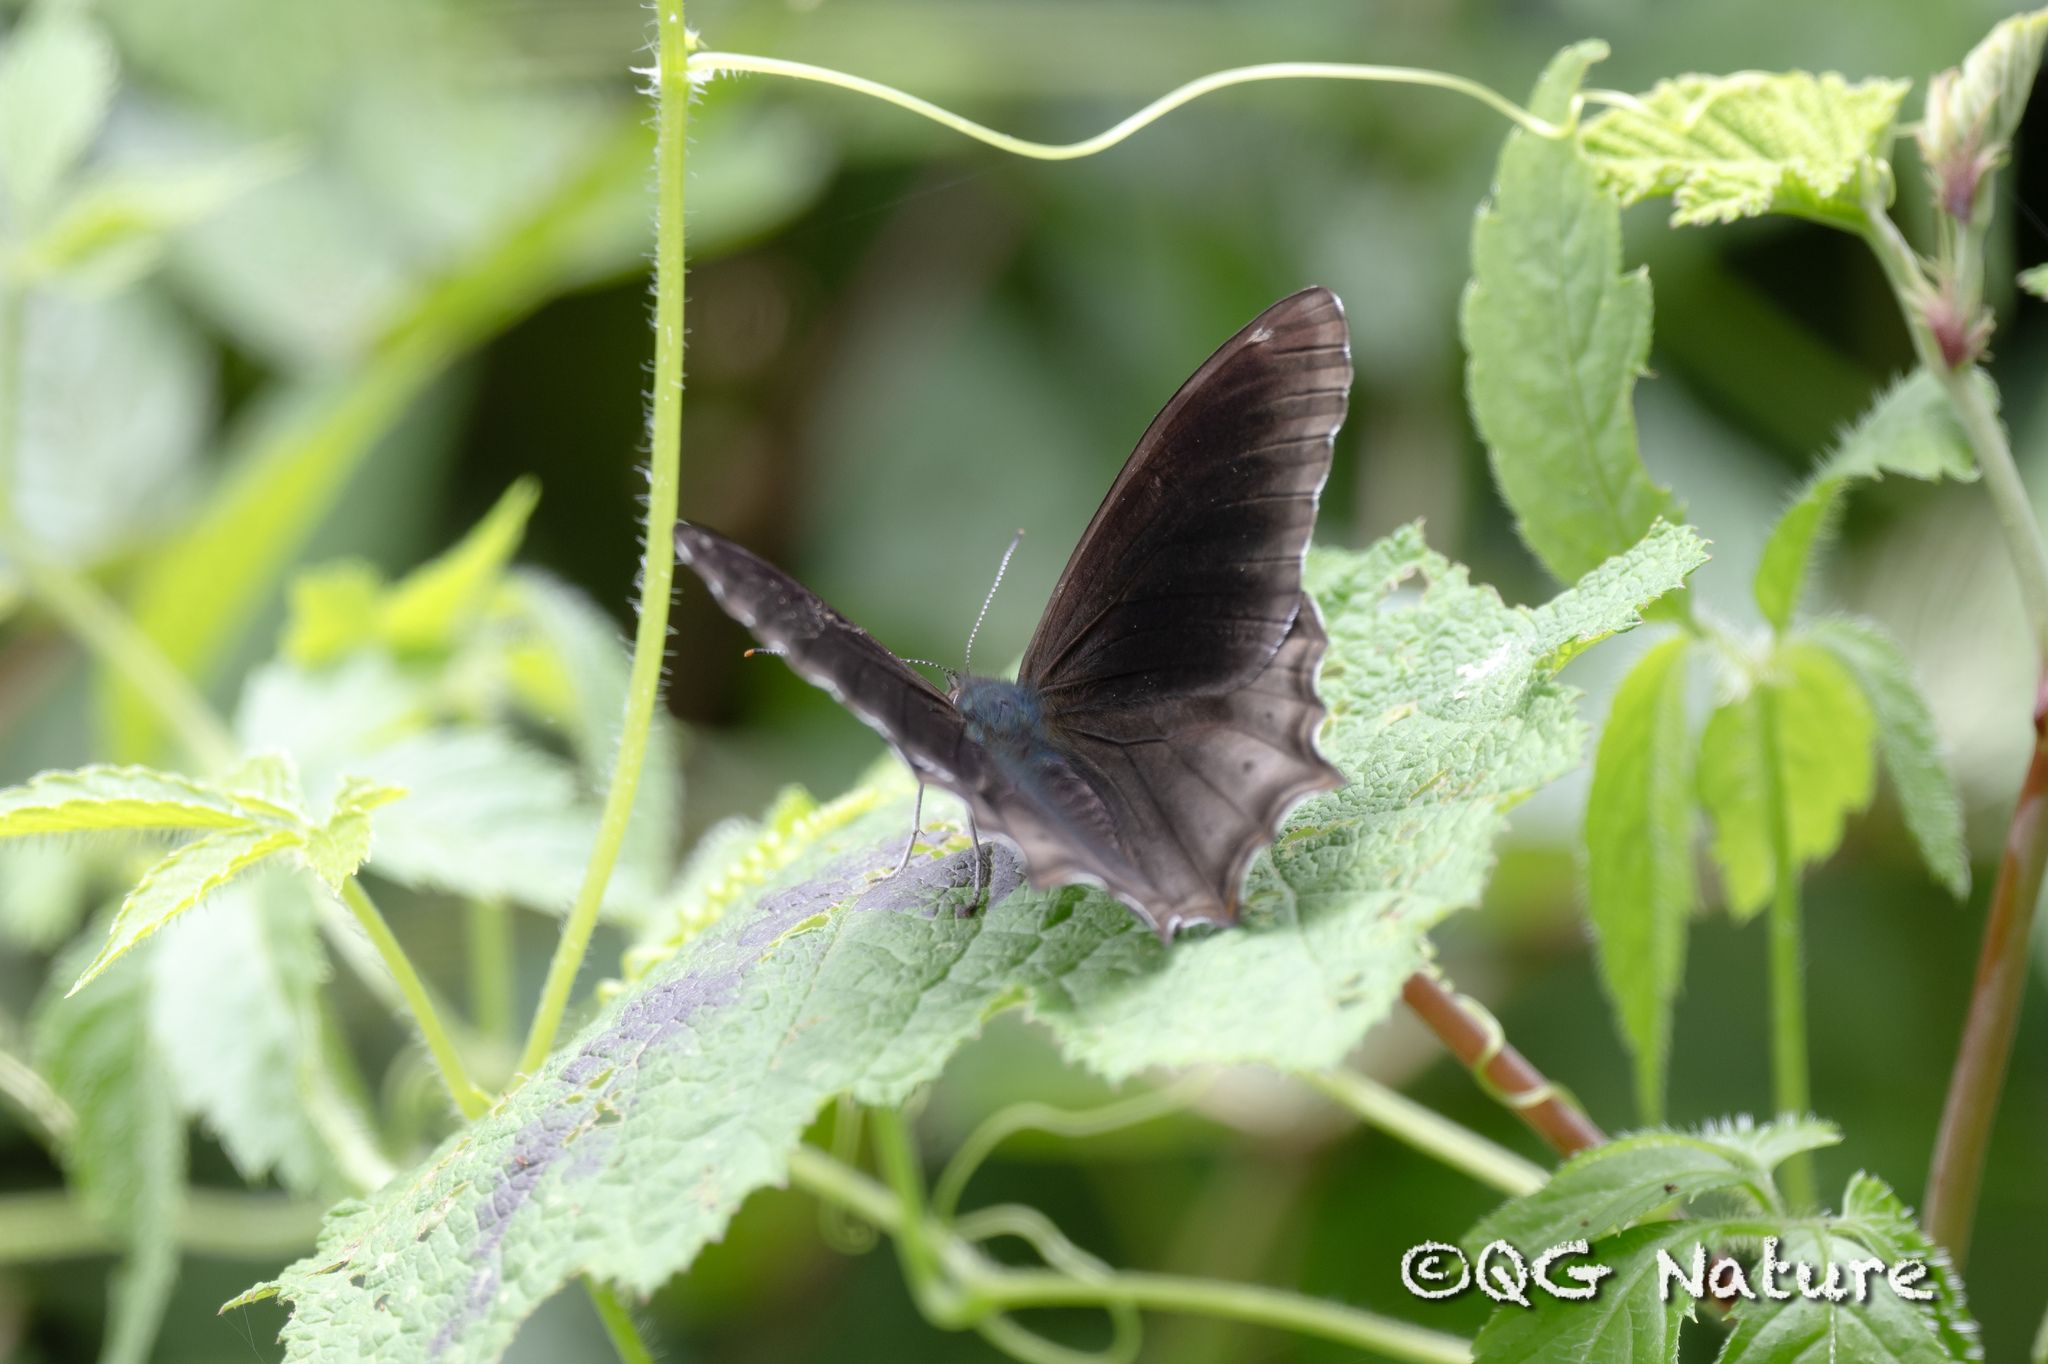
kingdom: Animalia
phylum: Arthropoda
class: Insecta
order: Lepidoptera
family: Nymphalidae
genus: Lethe
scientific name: Lethe dura
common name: Scarce lilacfork
